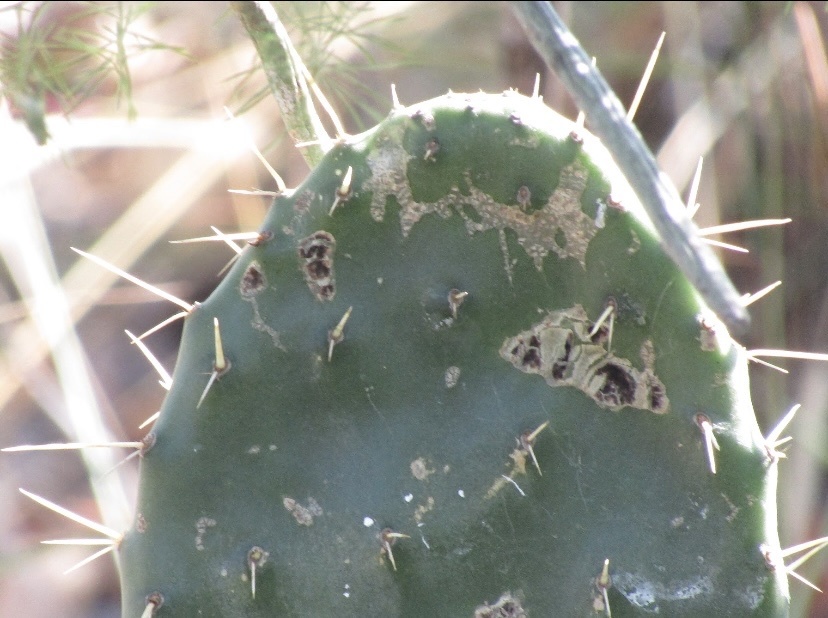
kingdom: Plantae
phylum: Tracheophyta
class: Magnoliopsida
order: Caryophyllales
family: Cactaceae
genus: Opuntia
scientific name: Opuntia ficus-indica
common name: Barbary fig
